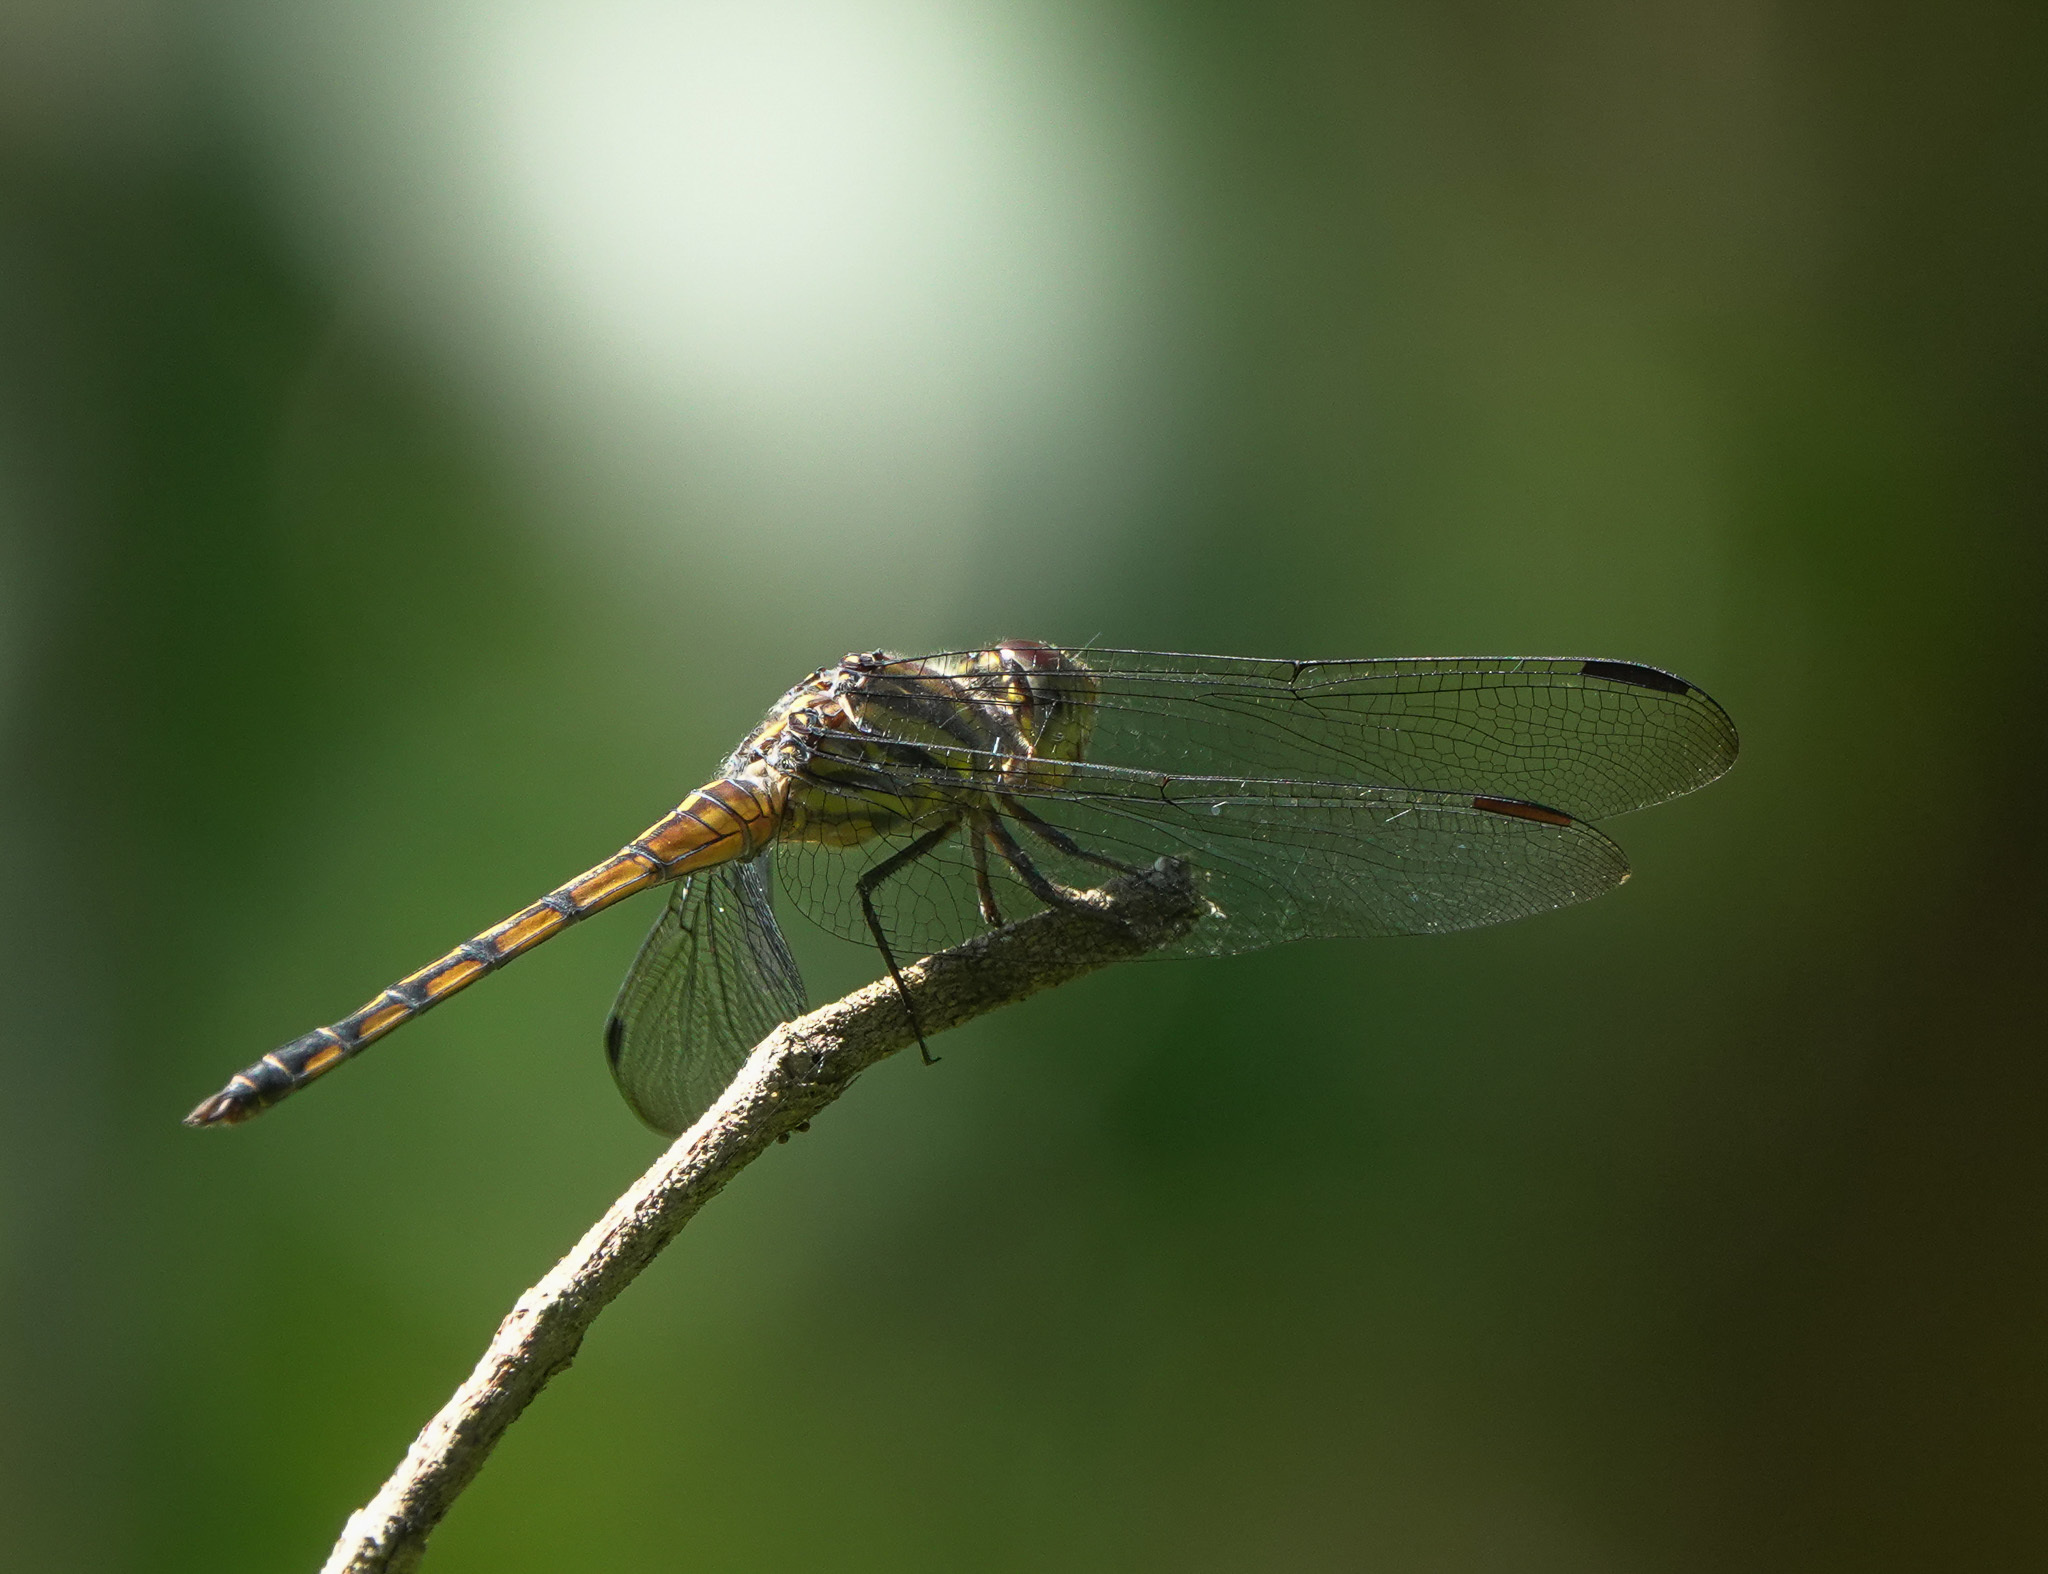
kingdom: Animalia
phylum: Arthropoda
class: Insecta
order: Odonata
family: Libellulidae
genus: Potamarcha
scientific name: Potamarcha congener
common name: Blue chaser
